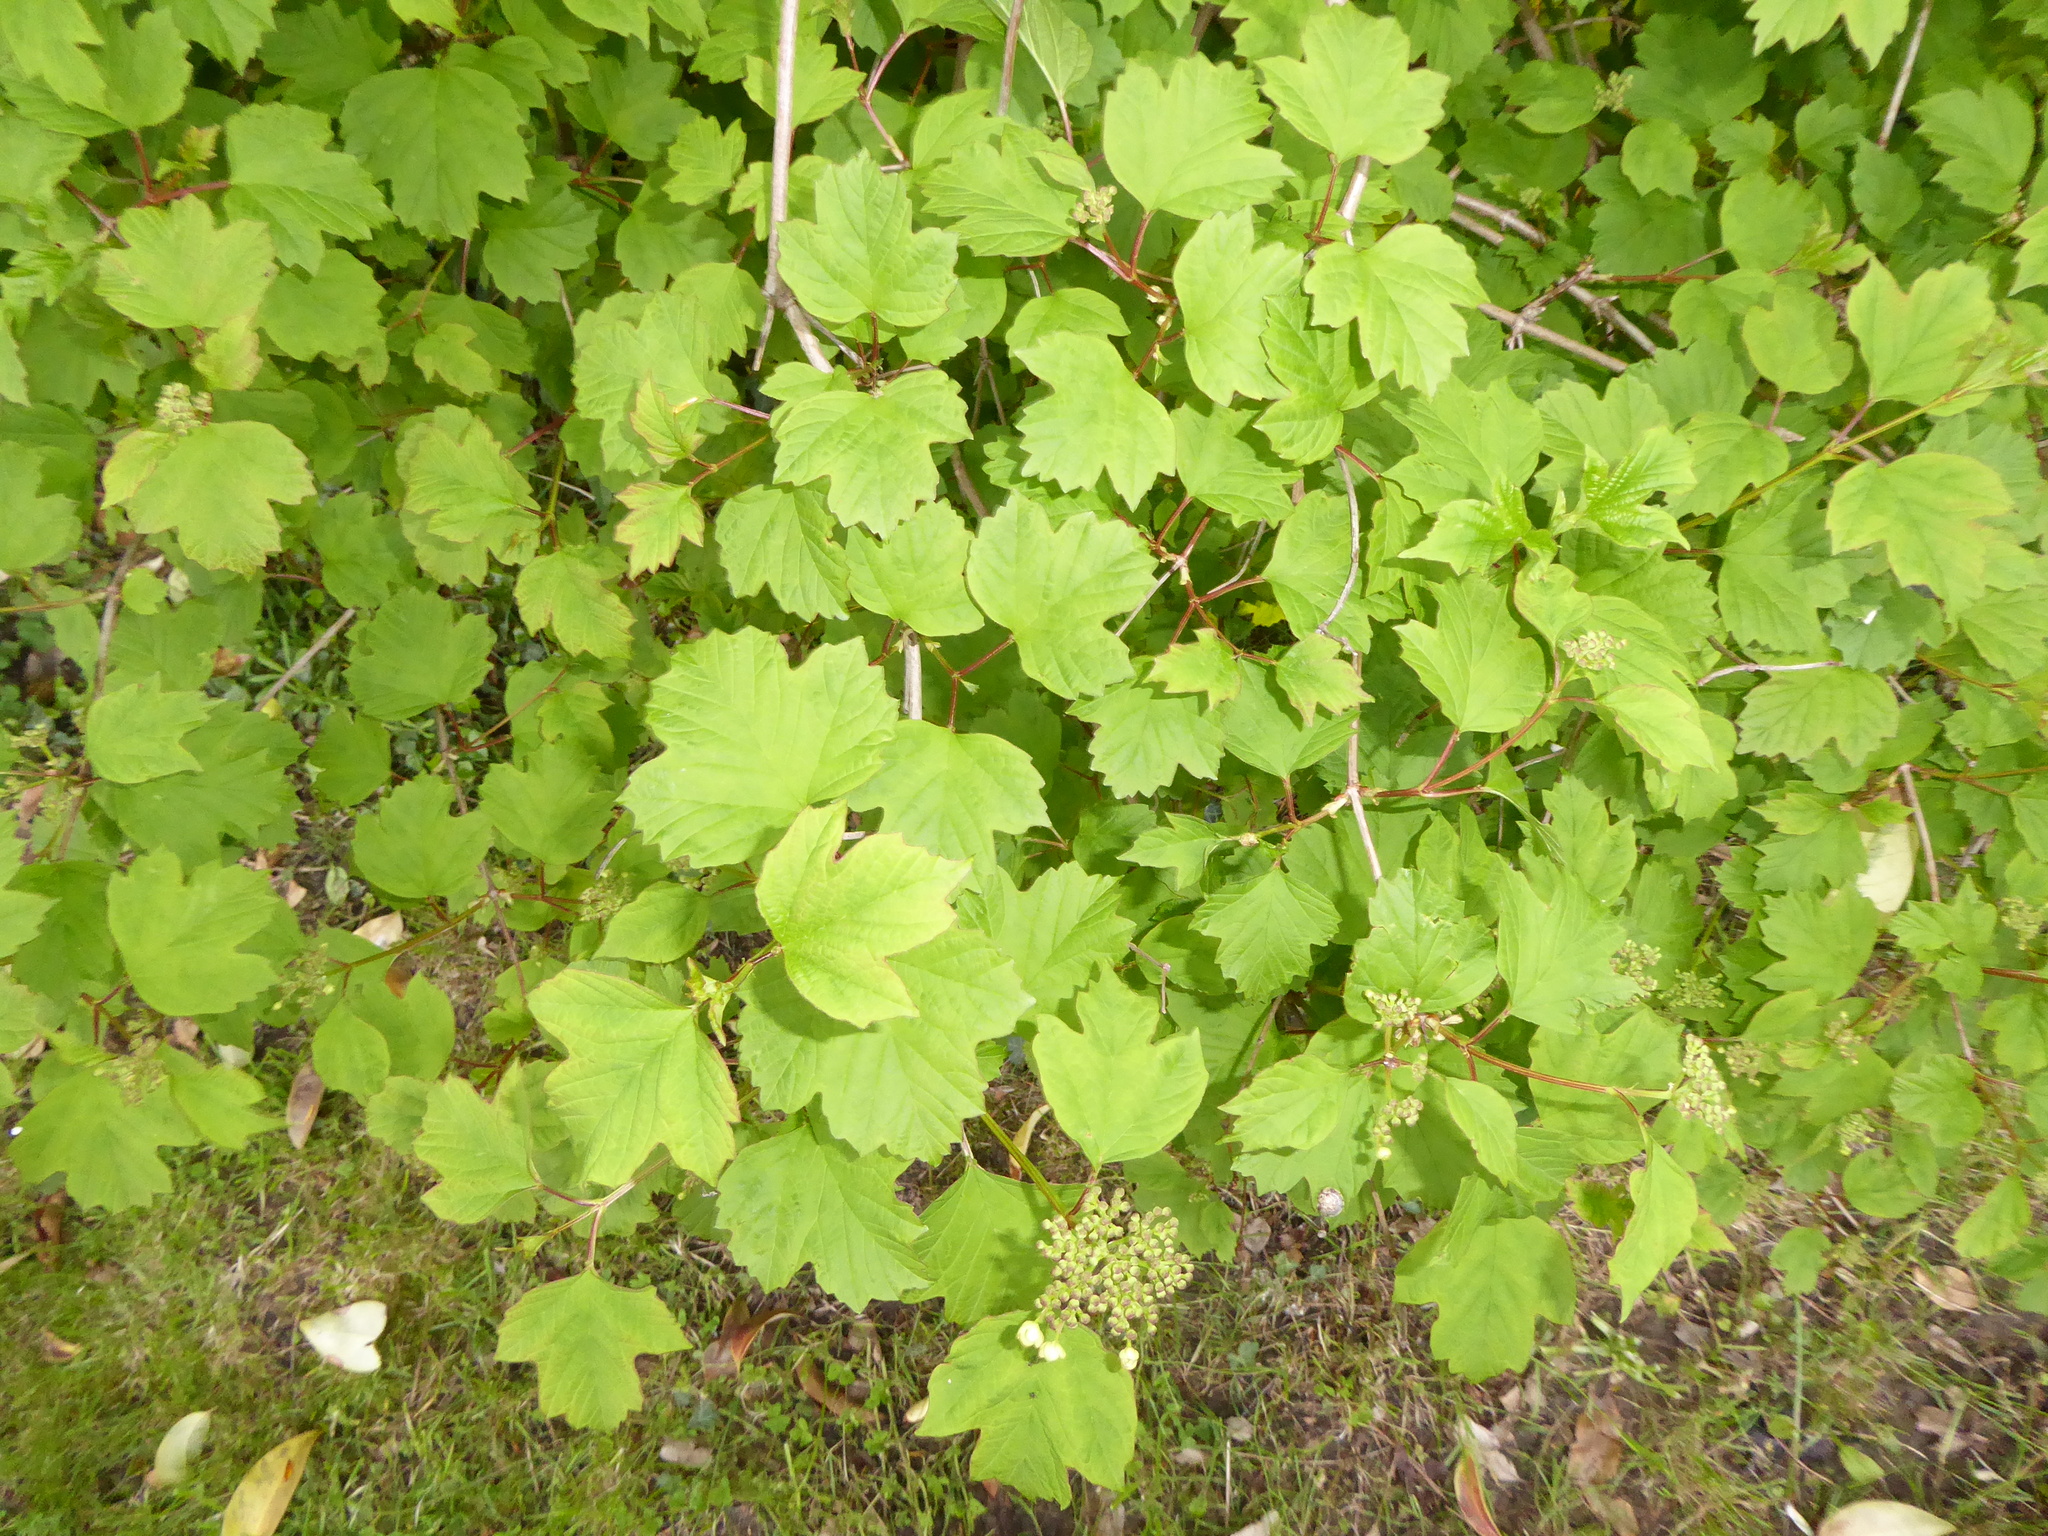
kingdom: Plantae
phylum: Tracheophyta
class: Magnoliopsida
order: Dipsacales
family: Viburnaceae
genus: Viburnum
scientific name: Viburnum opulus
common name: Guelder-rose
